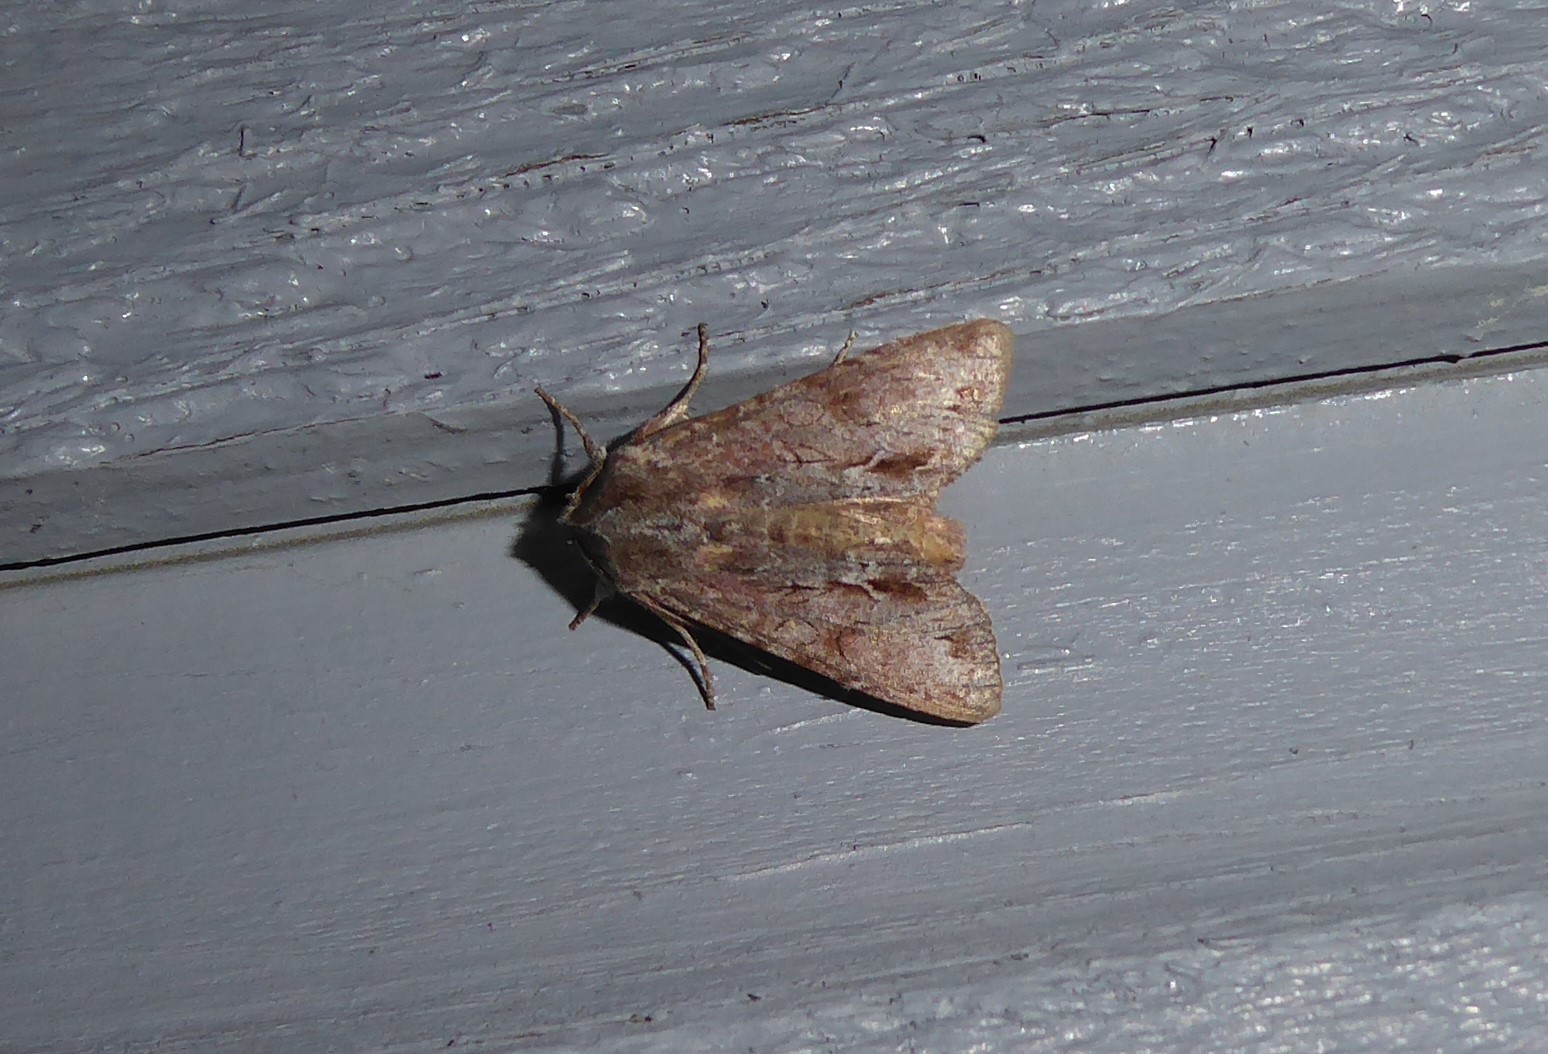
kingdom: Animalia
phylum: Arthropoda
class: Insecta
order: Lepidoptera
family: Noctuidae
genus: Ichneutica
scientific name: Ichneutica
